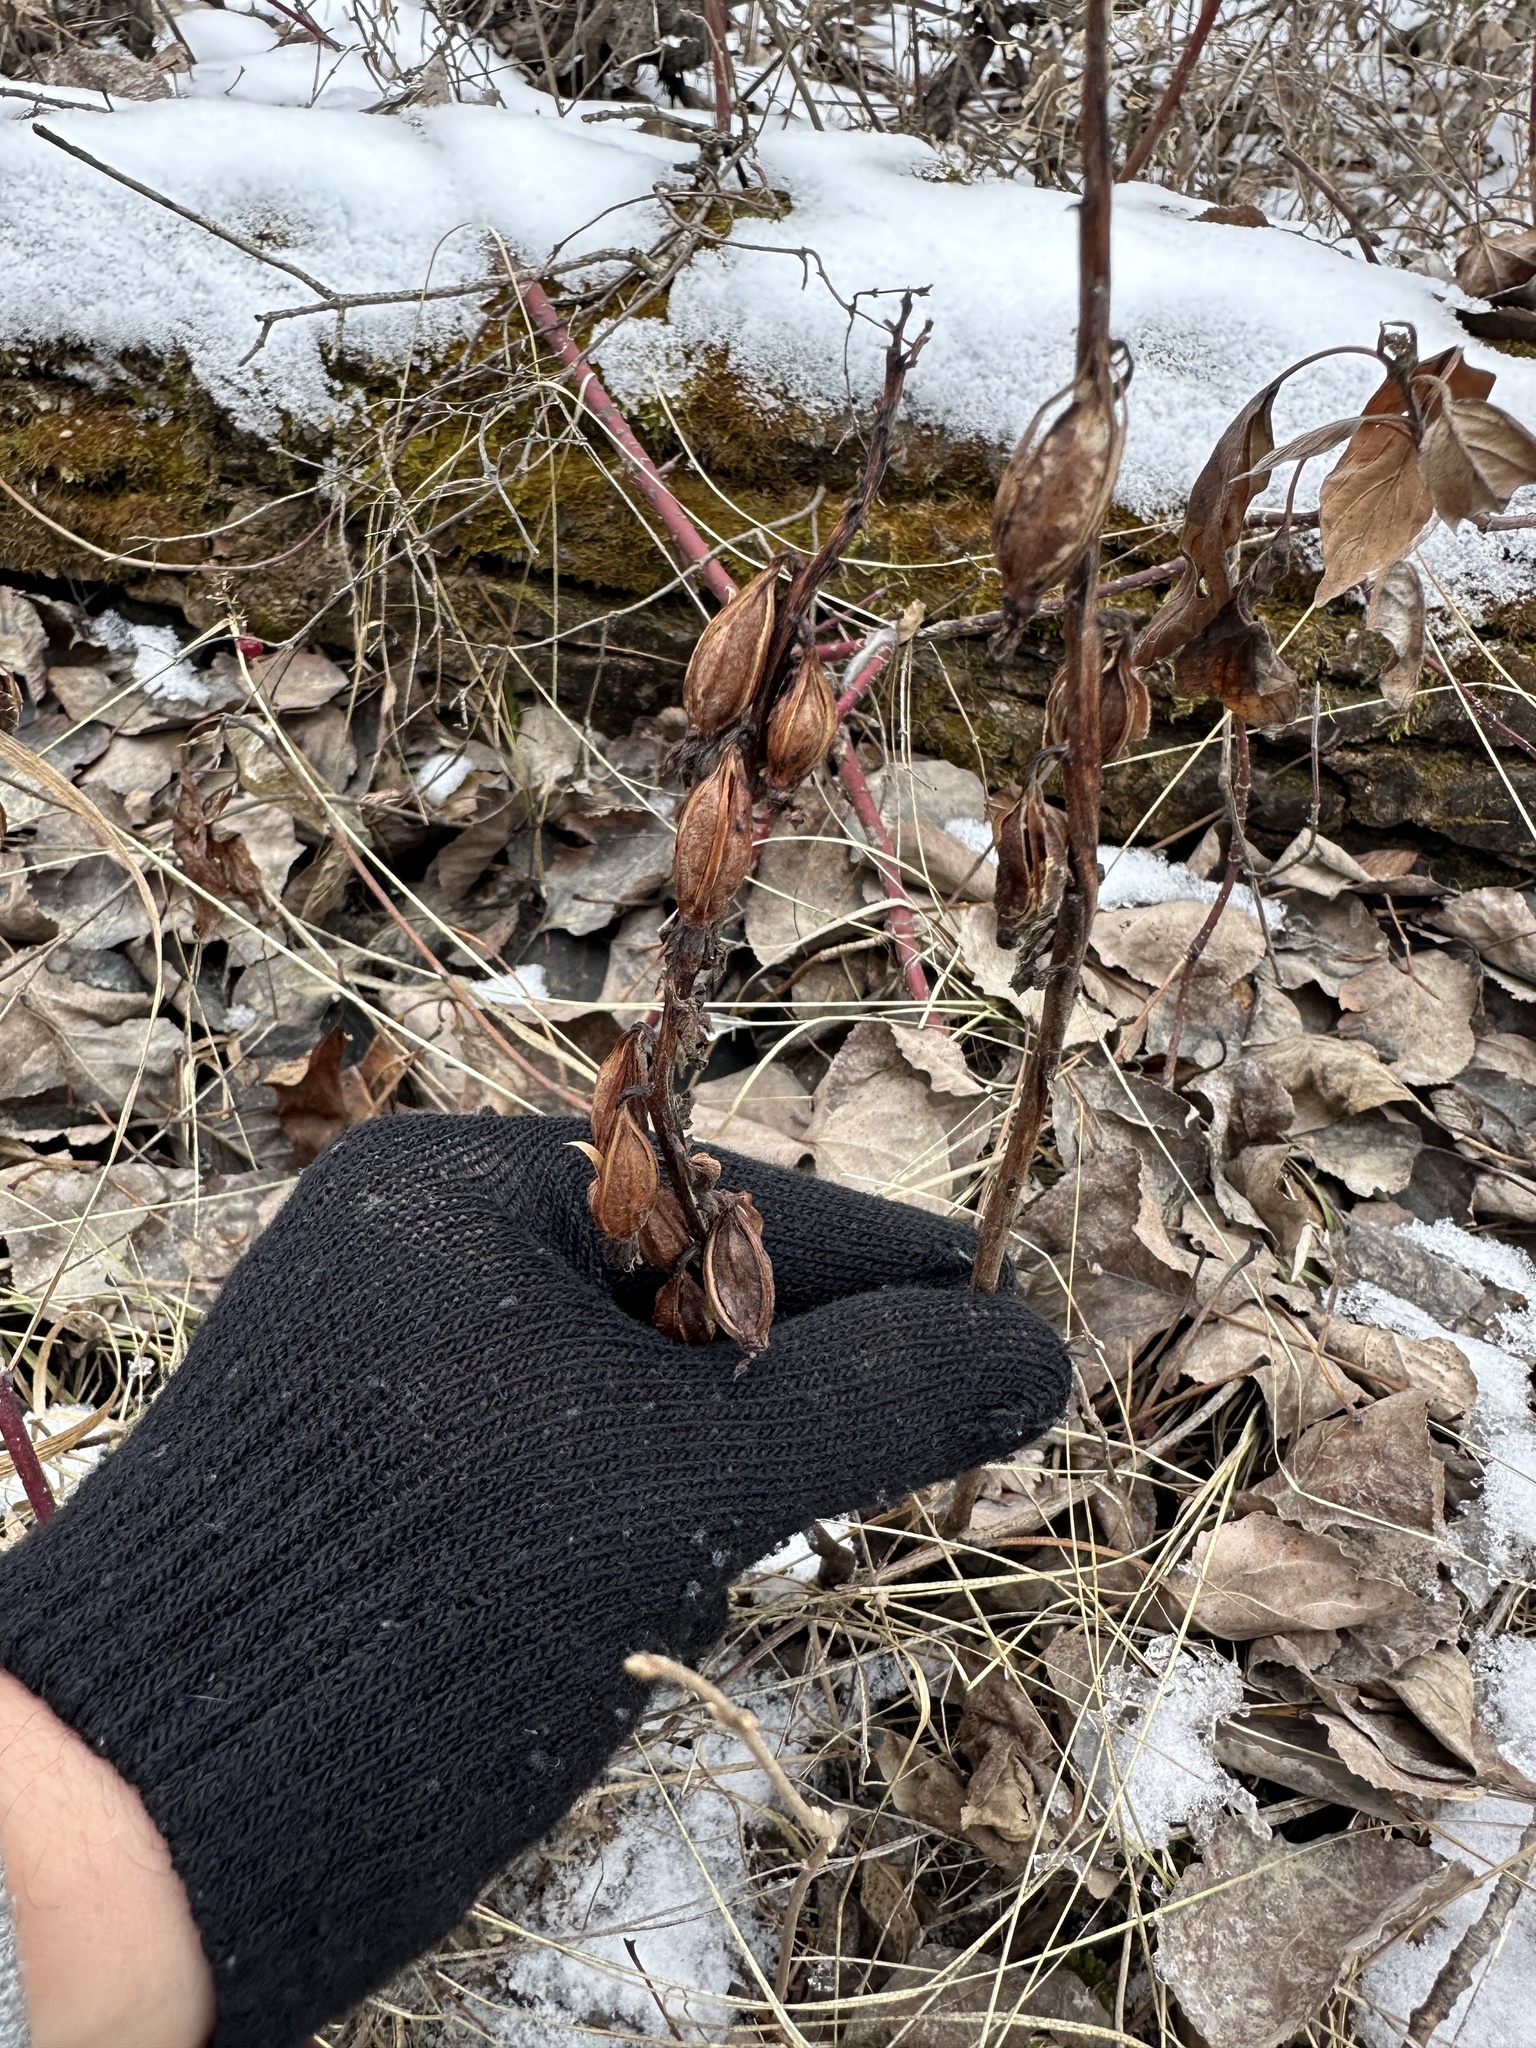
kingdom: Plantae
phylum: Tracheophyta
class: Liliopsida
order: Asparagales
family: Orchidaceae
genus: Corallorhiza
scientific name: Corallorhiza maculata
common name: Spotted coralroot
